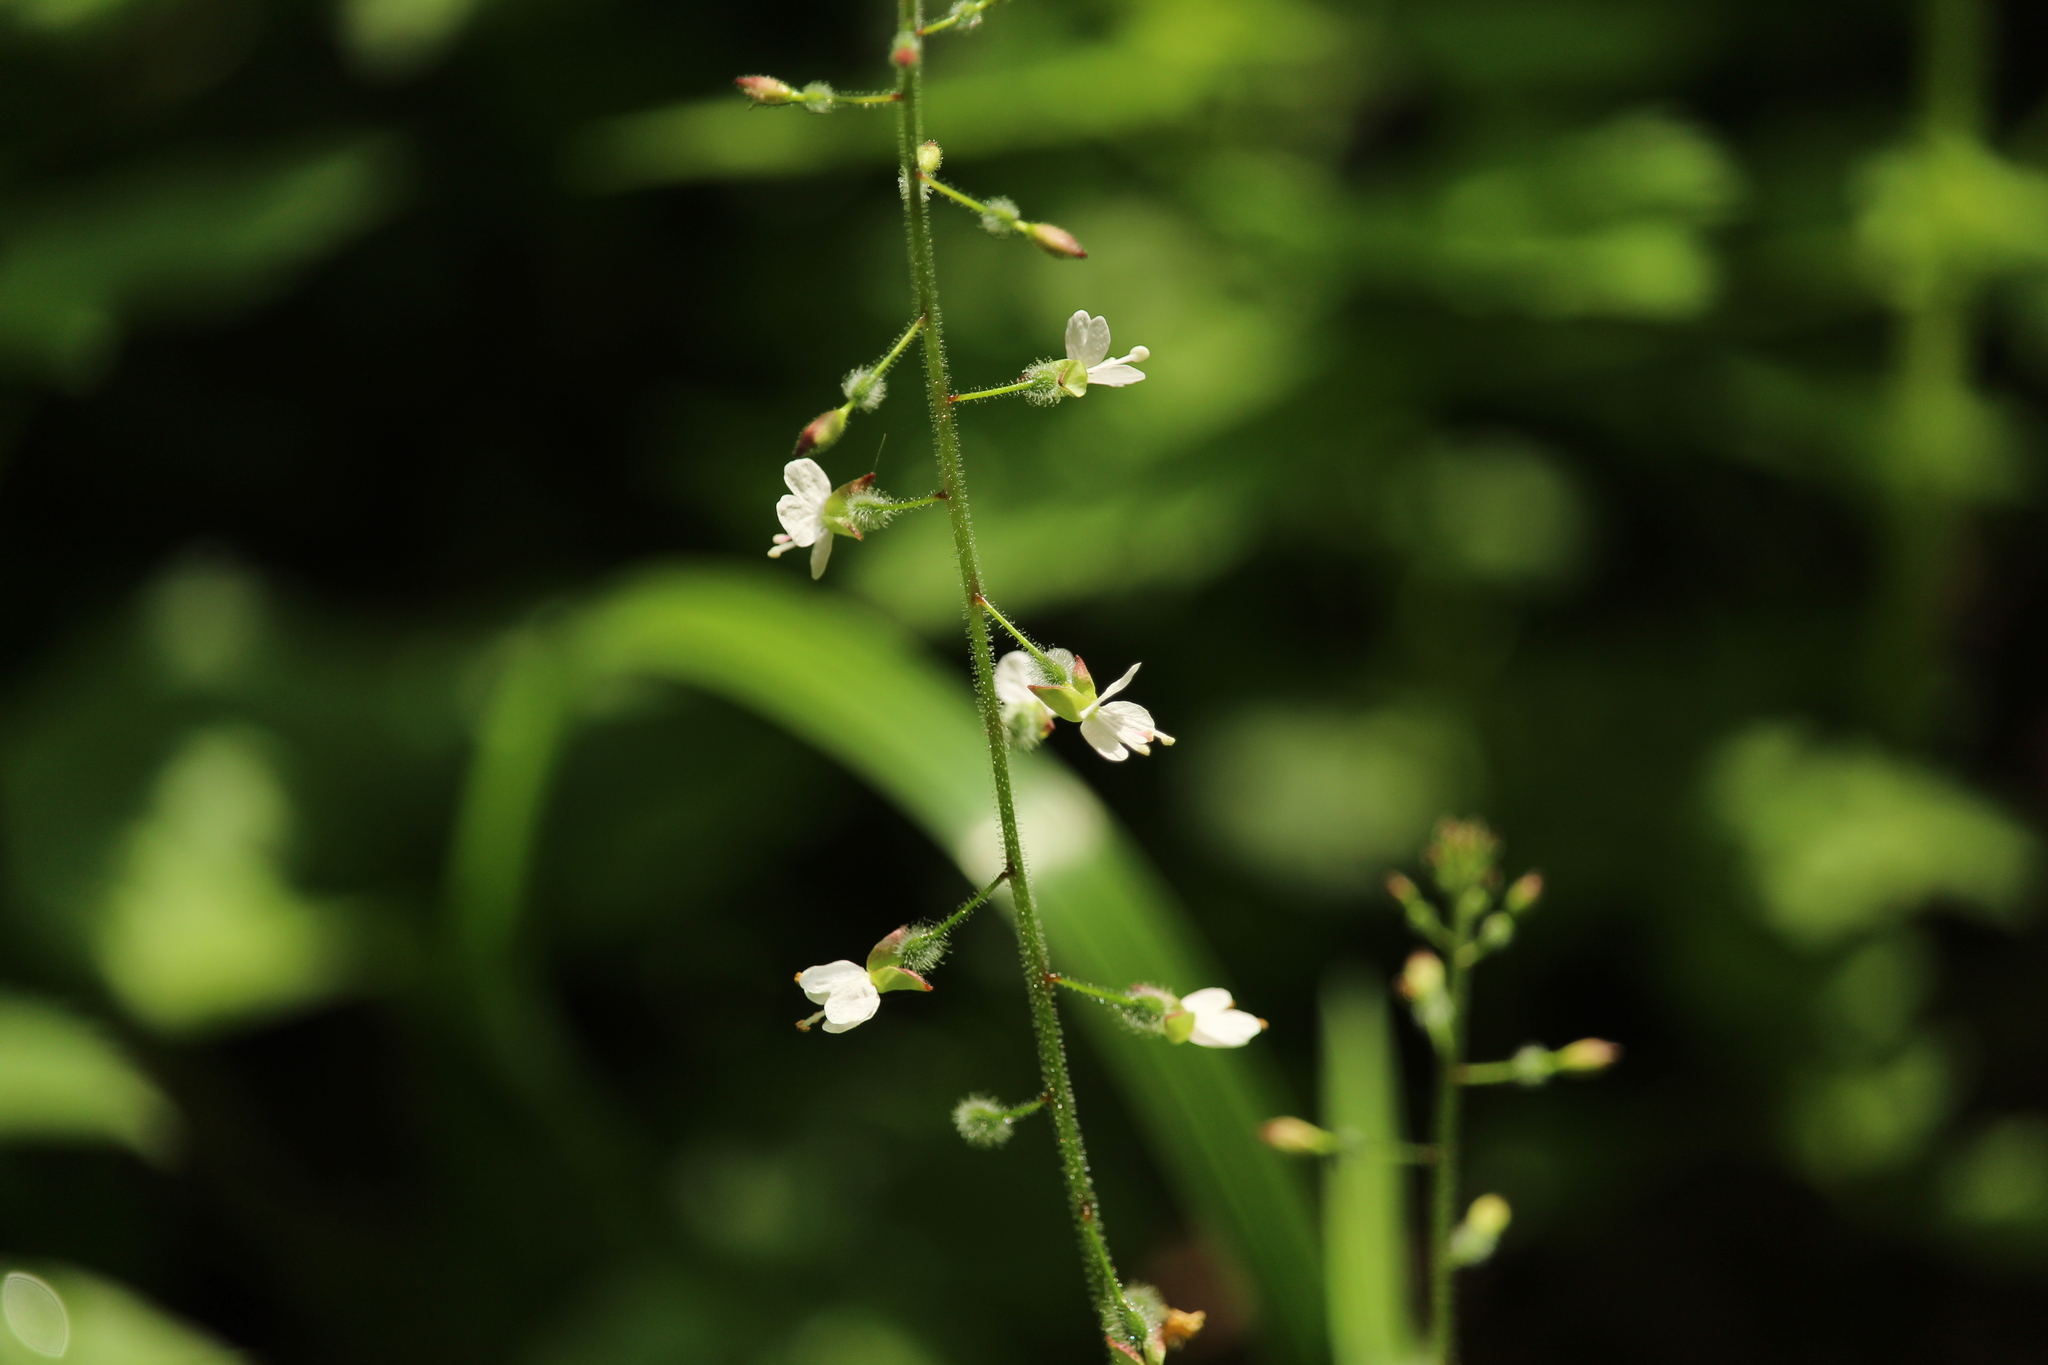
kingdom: Plantae
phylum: Tracheophyta
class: Magnoliopsida
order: Myrtales
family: Onagraceae
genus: Circaea
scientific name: Circaea lutetiana
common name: Enchanter's-nightshade
